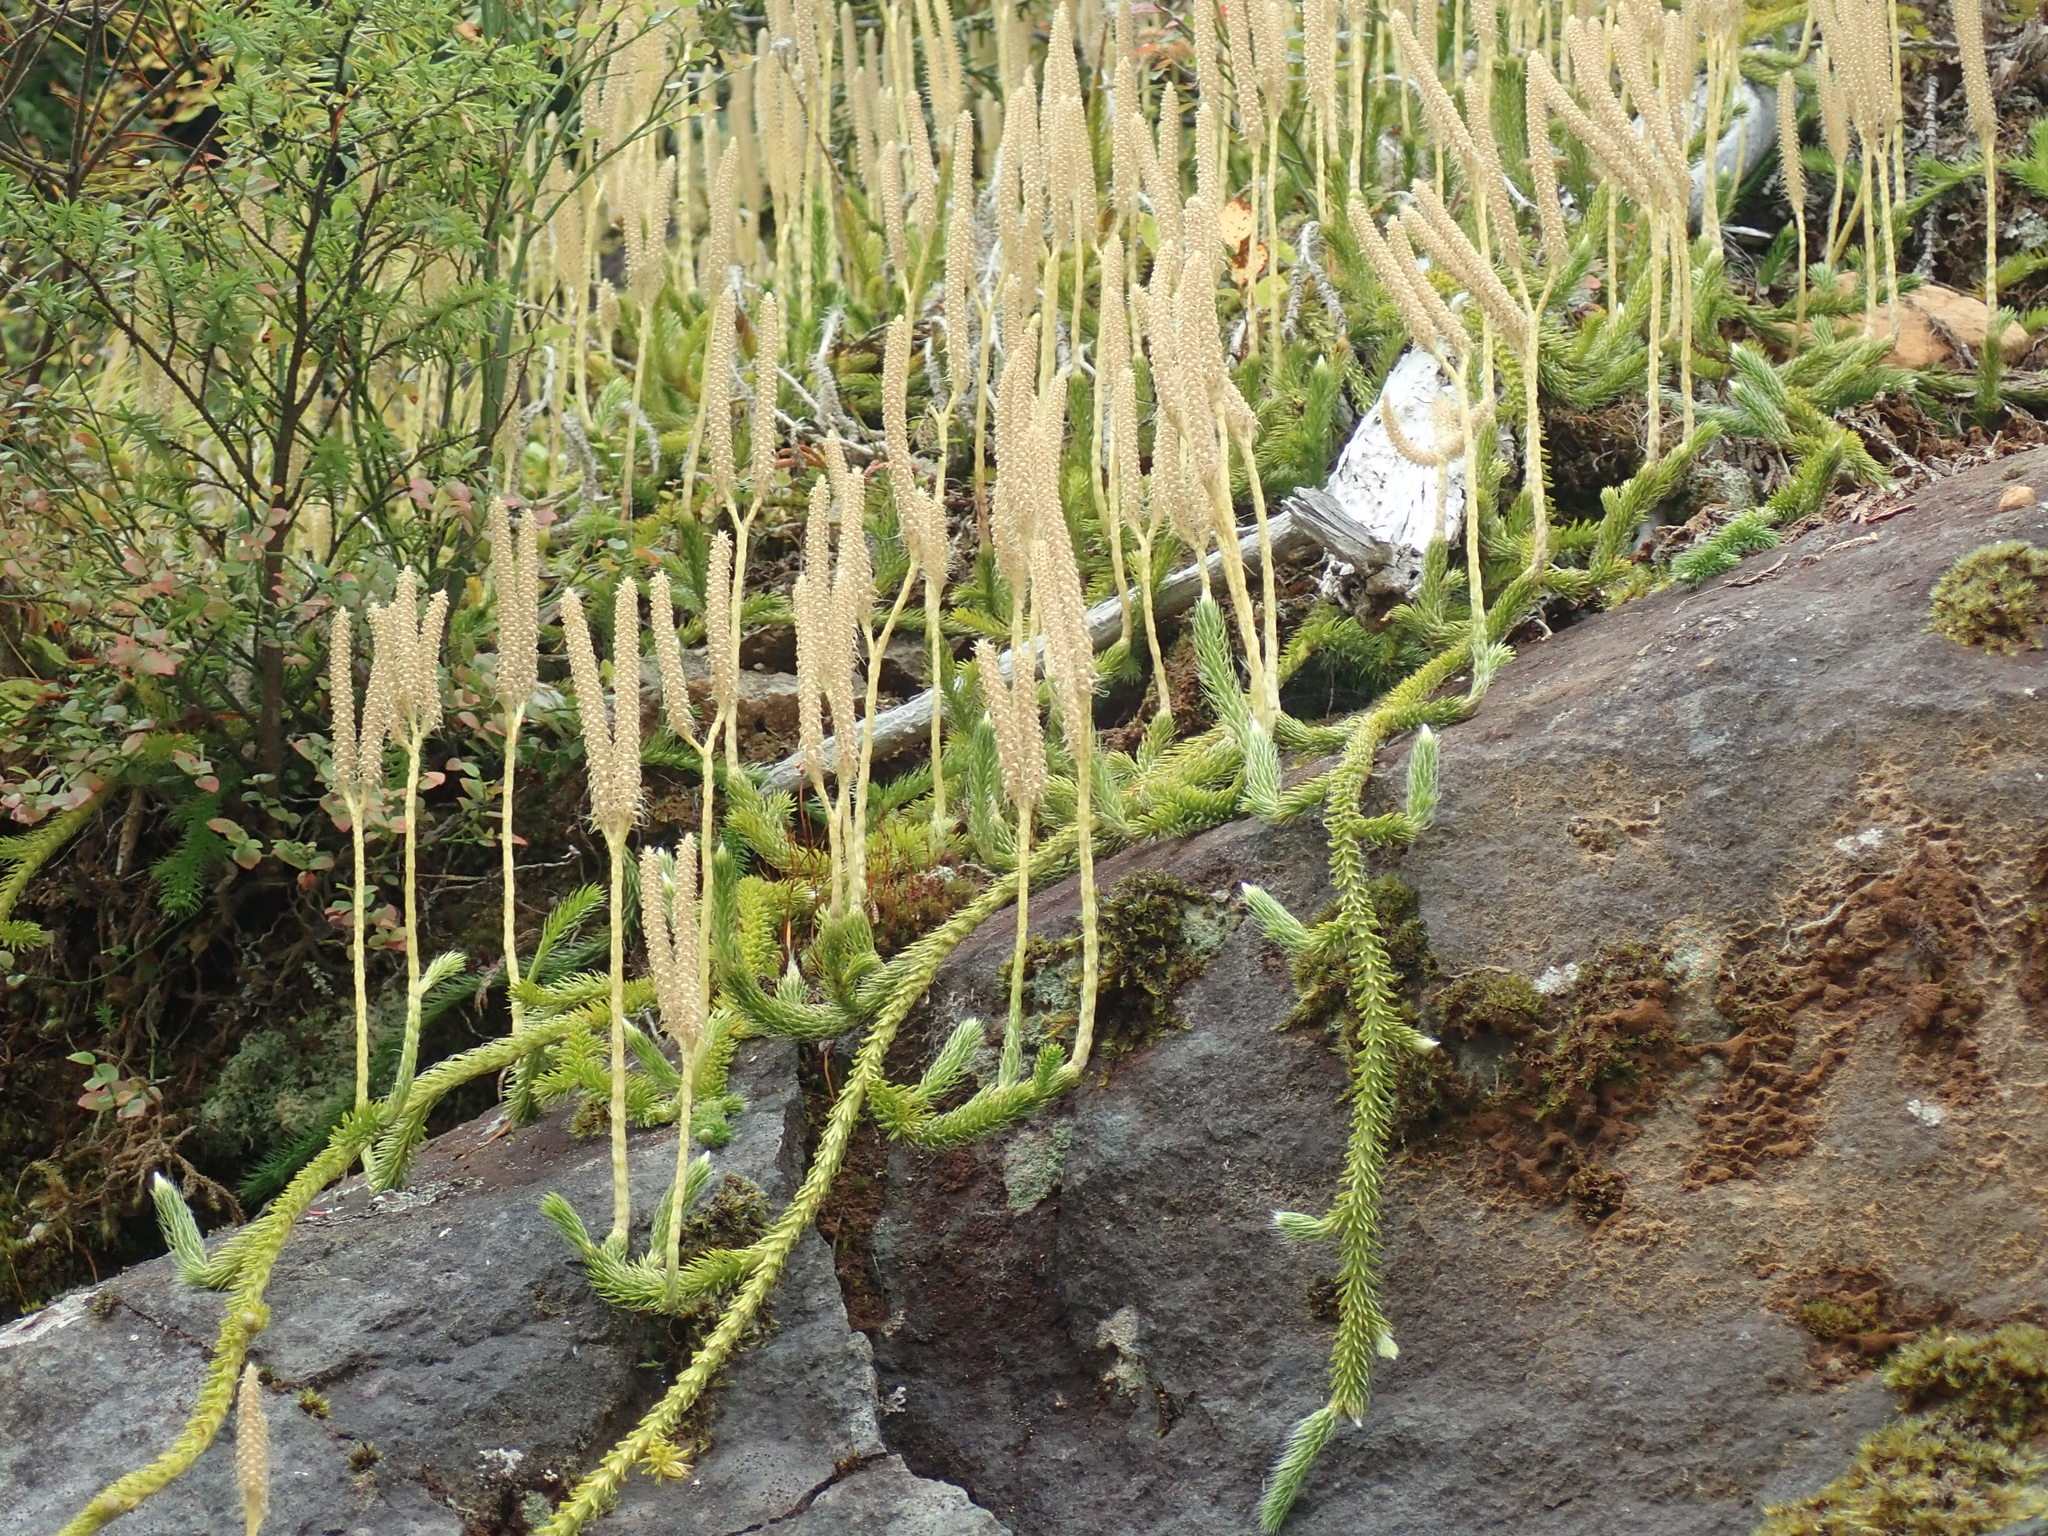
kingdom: Plantae
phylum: Tracheophyta
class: Lycopodiopsida
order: Lycopodiales
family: Lycopodiaceae
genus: Lycopodium
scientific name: Lycopodium clavatum
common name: Stag's-horn clubmoss
